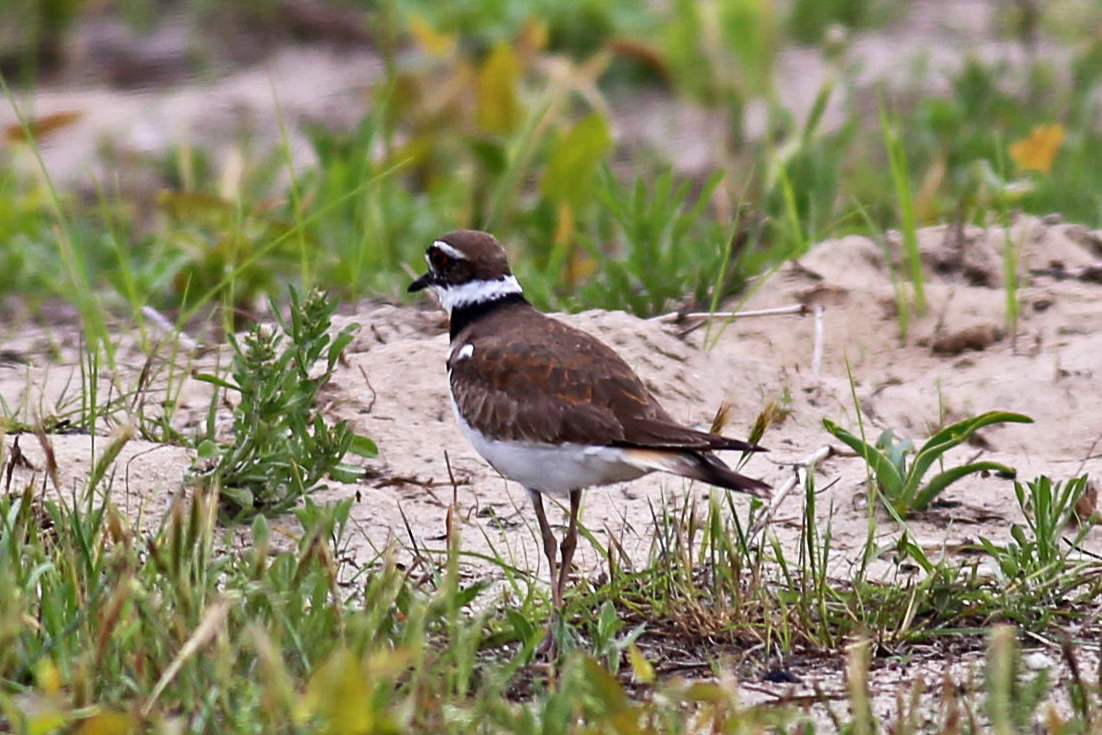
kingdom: Animalia
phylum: Chordata
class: Aves
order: Charadriiformes
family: Charadriidae
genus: Charadrius
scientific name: Charadrius vociferus
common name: Killdeer
